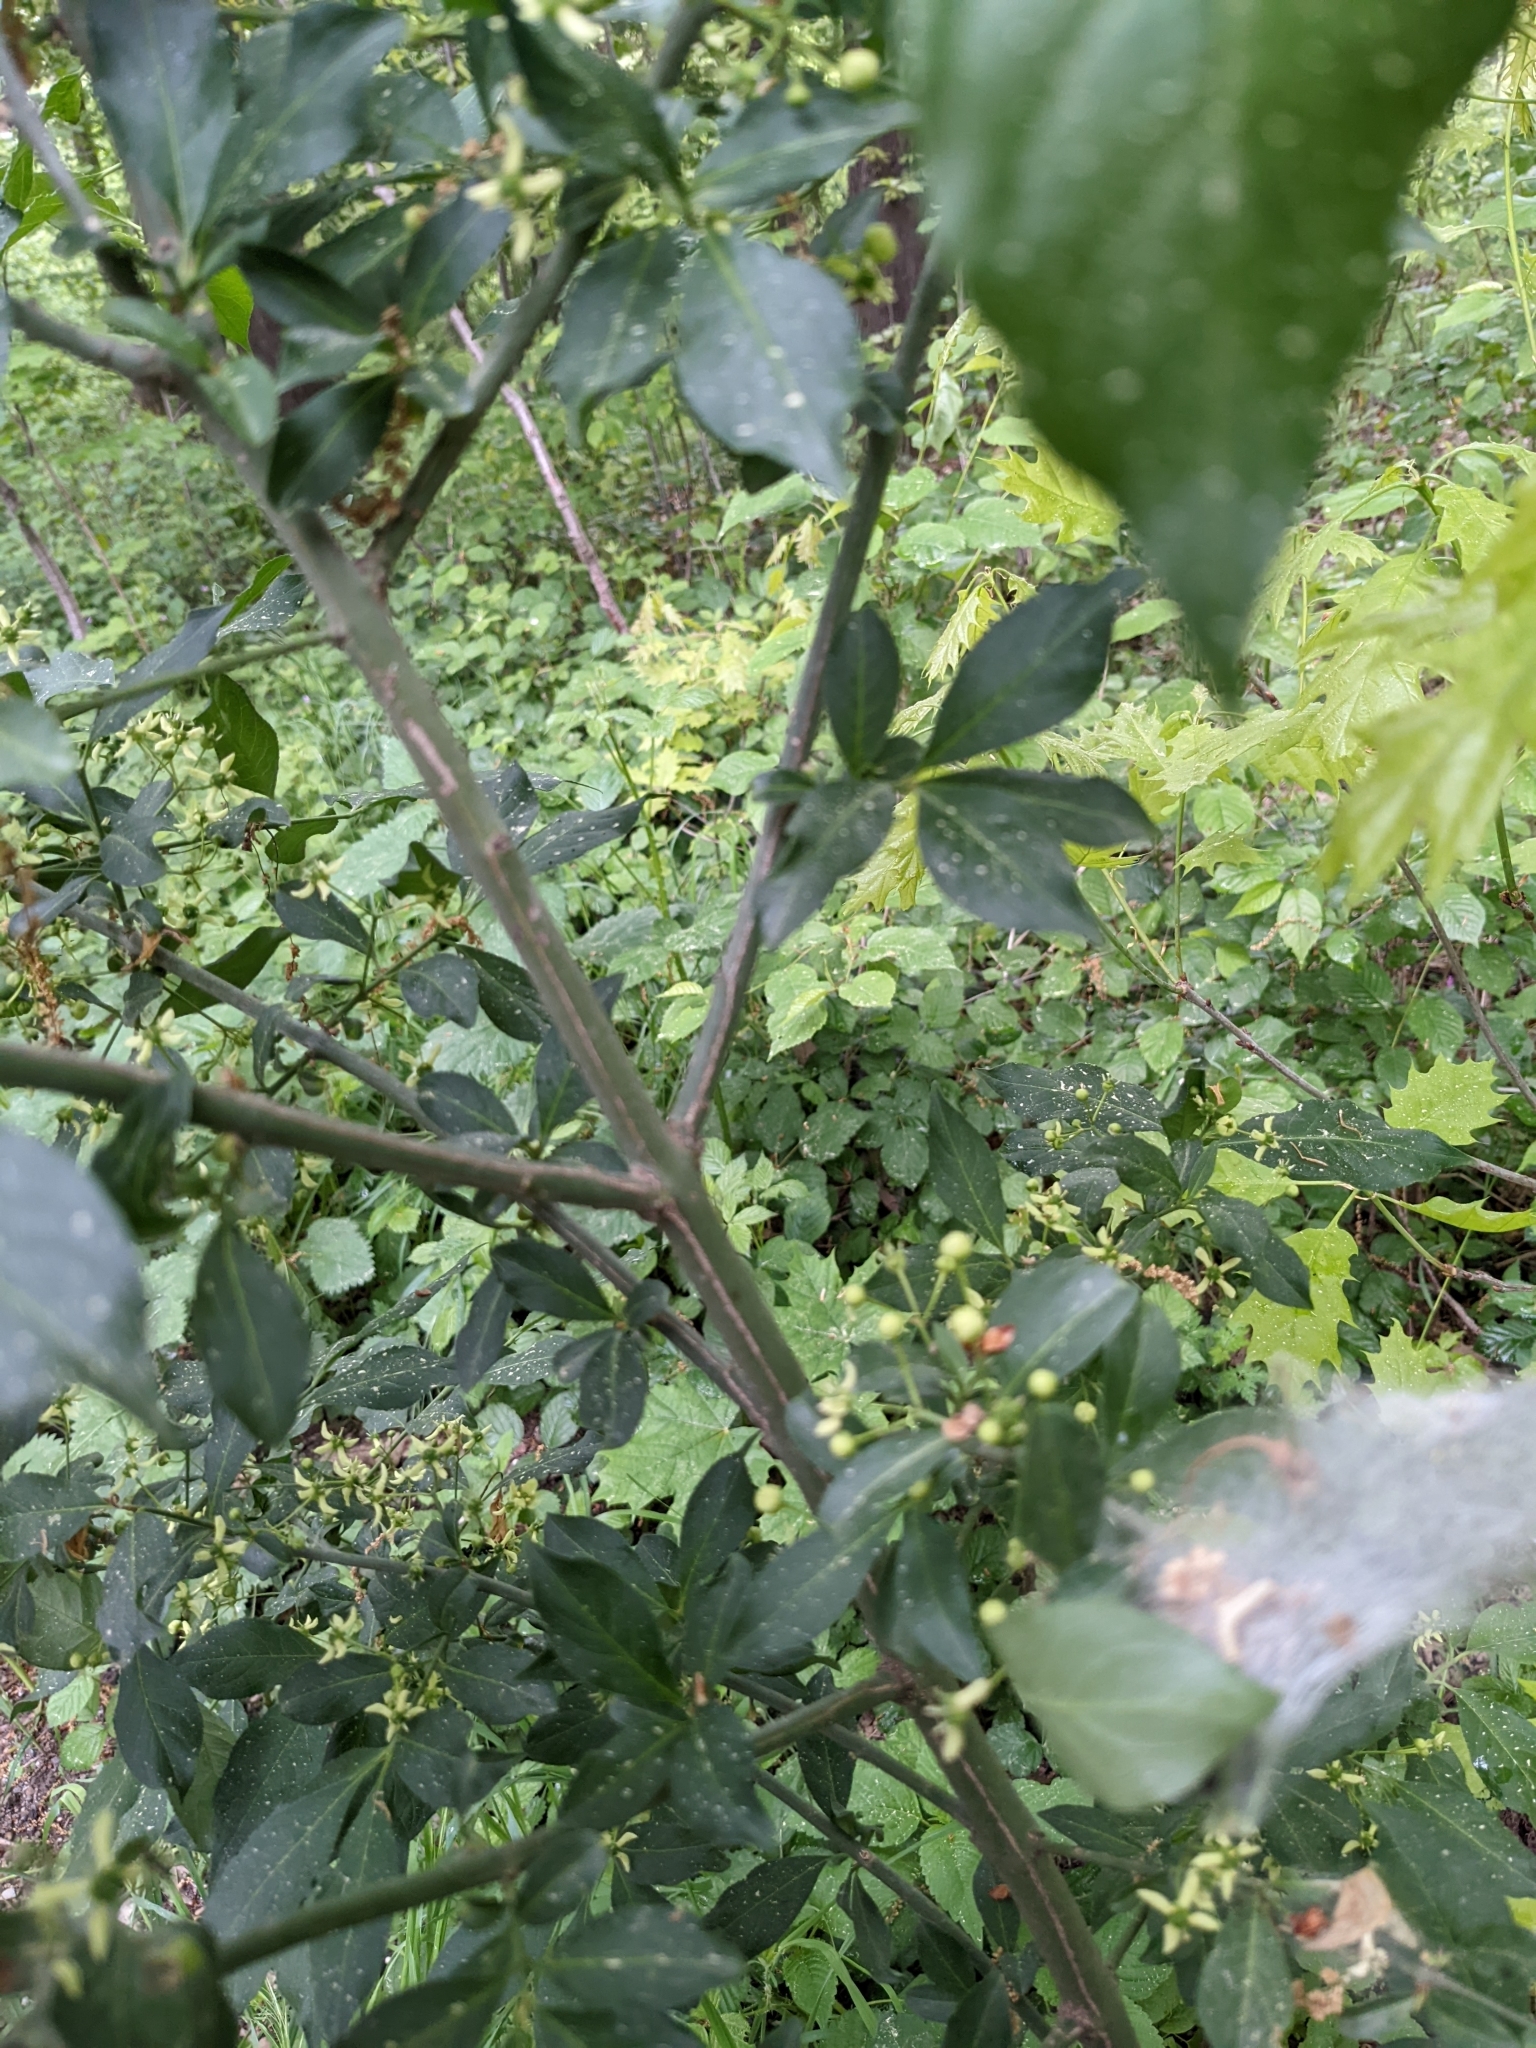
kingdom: Plantae
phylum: Tracheophyta
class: Magnoliopsida
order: Celastrales
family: Celastraceae
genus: Euonymus
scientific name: Euonymus europaeus
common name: Spindle
